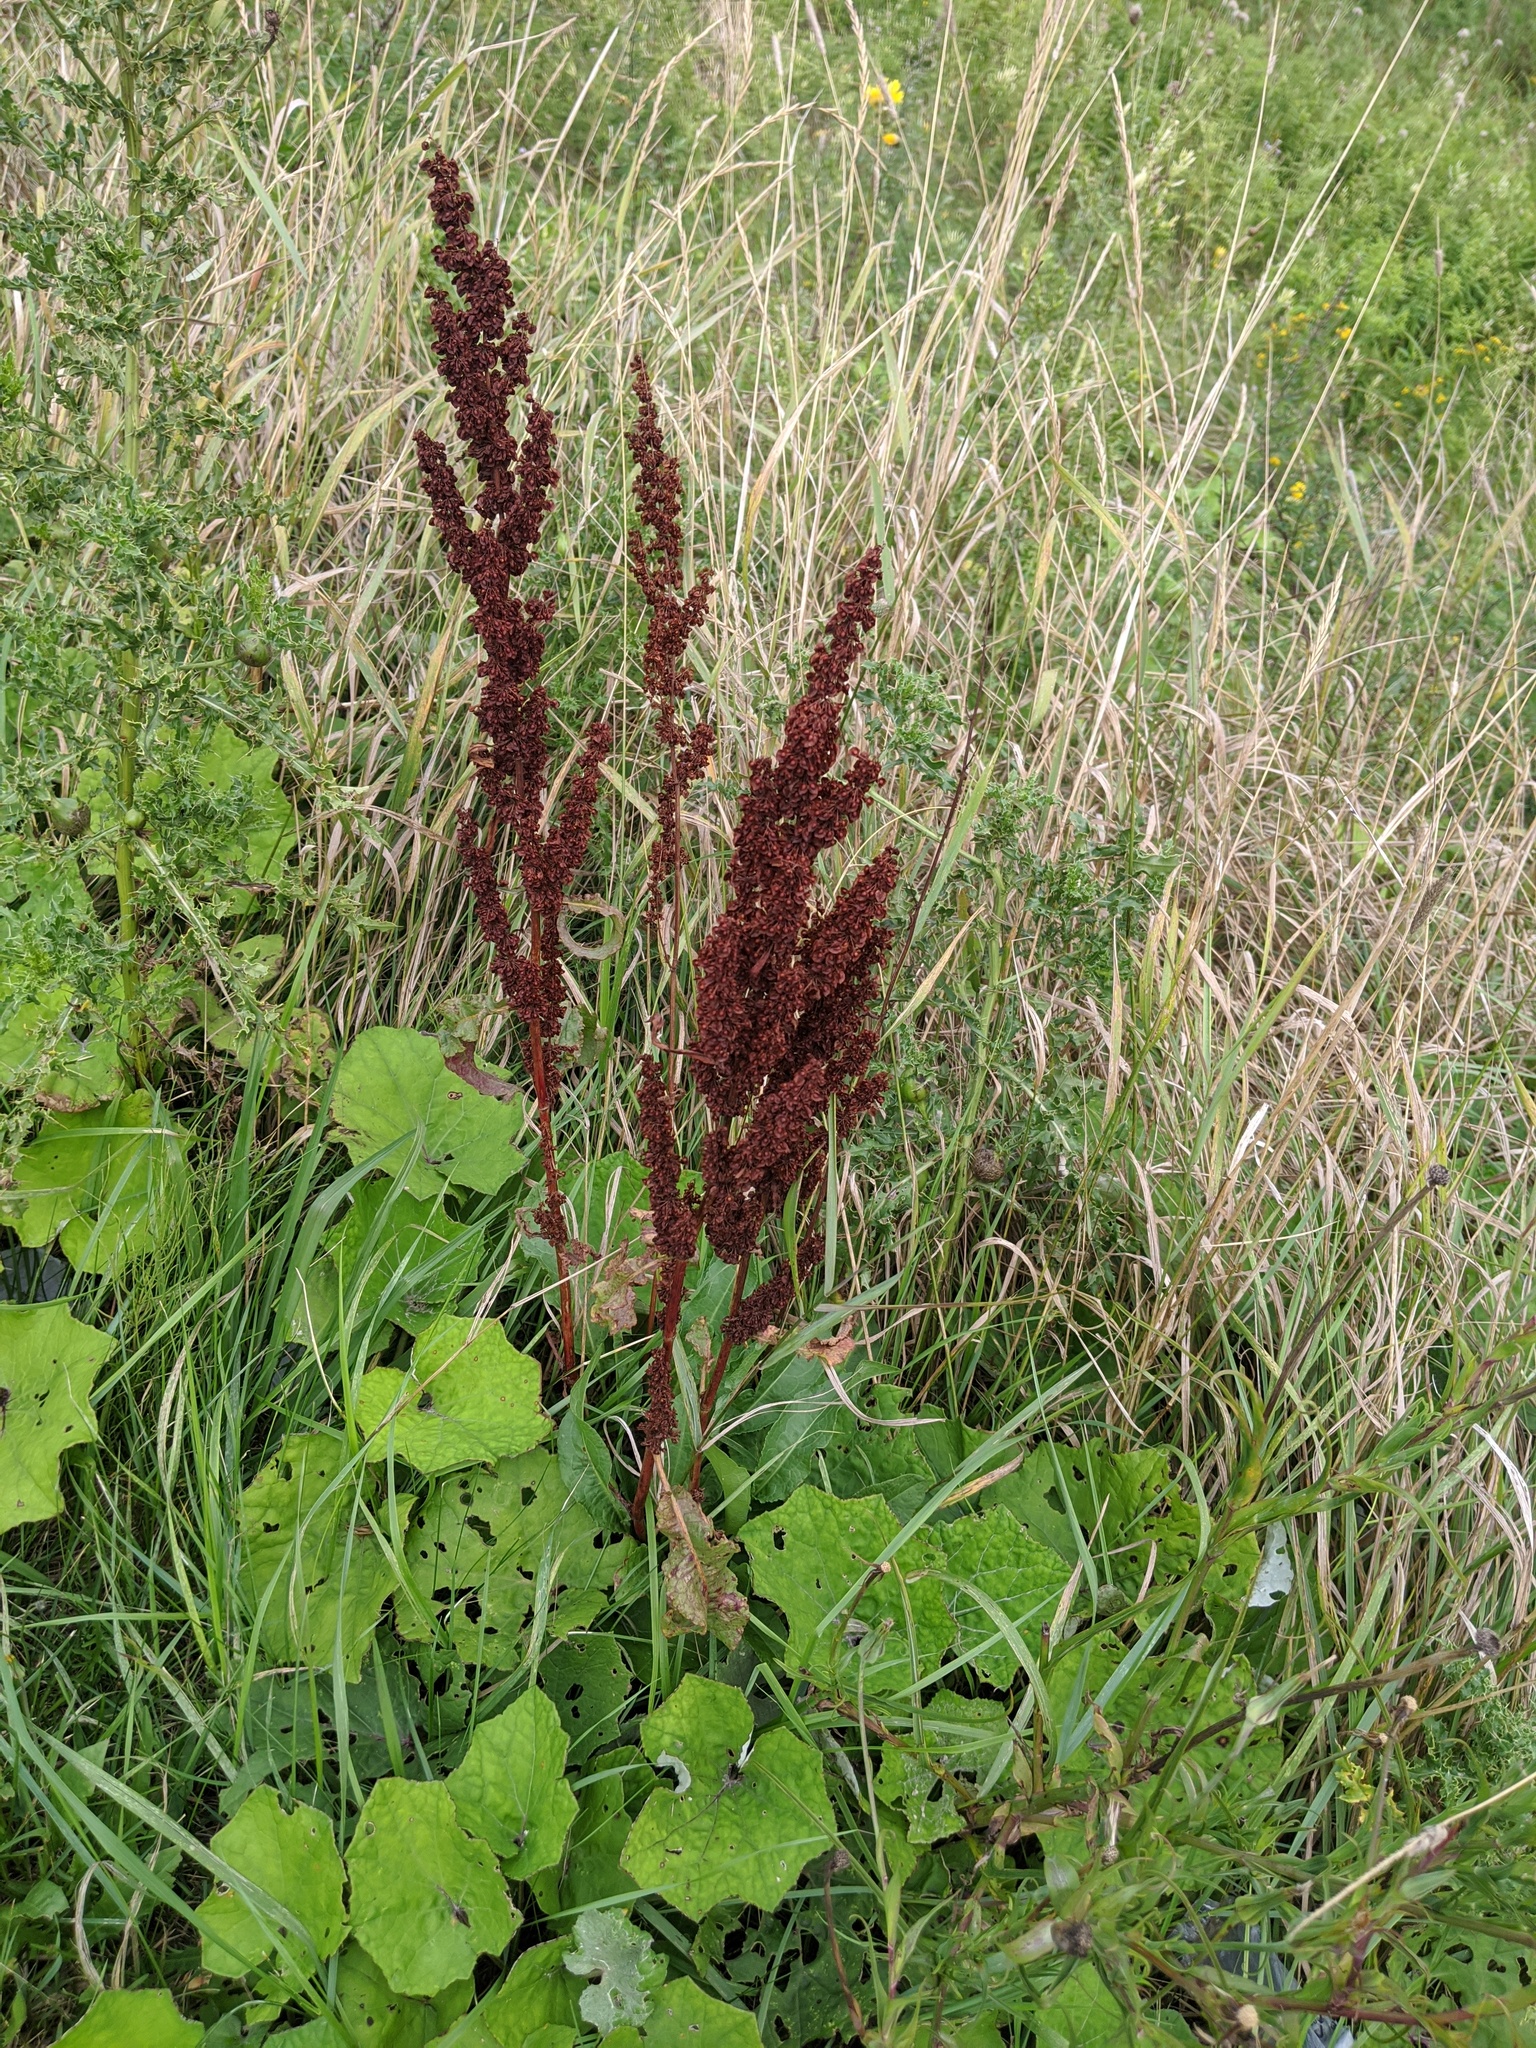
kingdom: Plantae
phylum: Tracheophyta
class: Magnoliopsida
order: Caryophyllales
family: Polygonaceae
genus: Rumex
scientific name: Rumex crispus
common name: Curled dock
